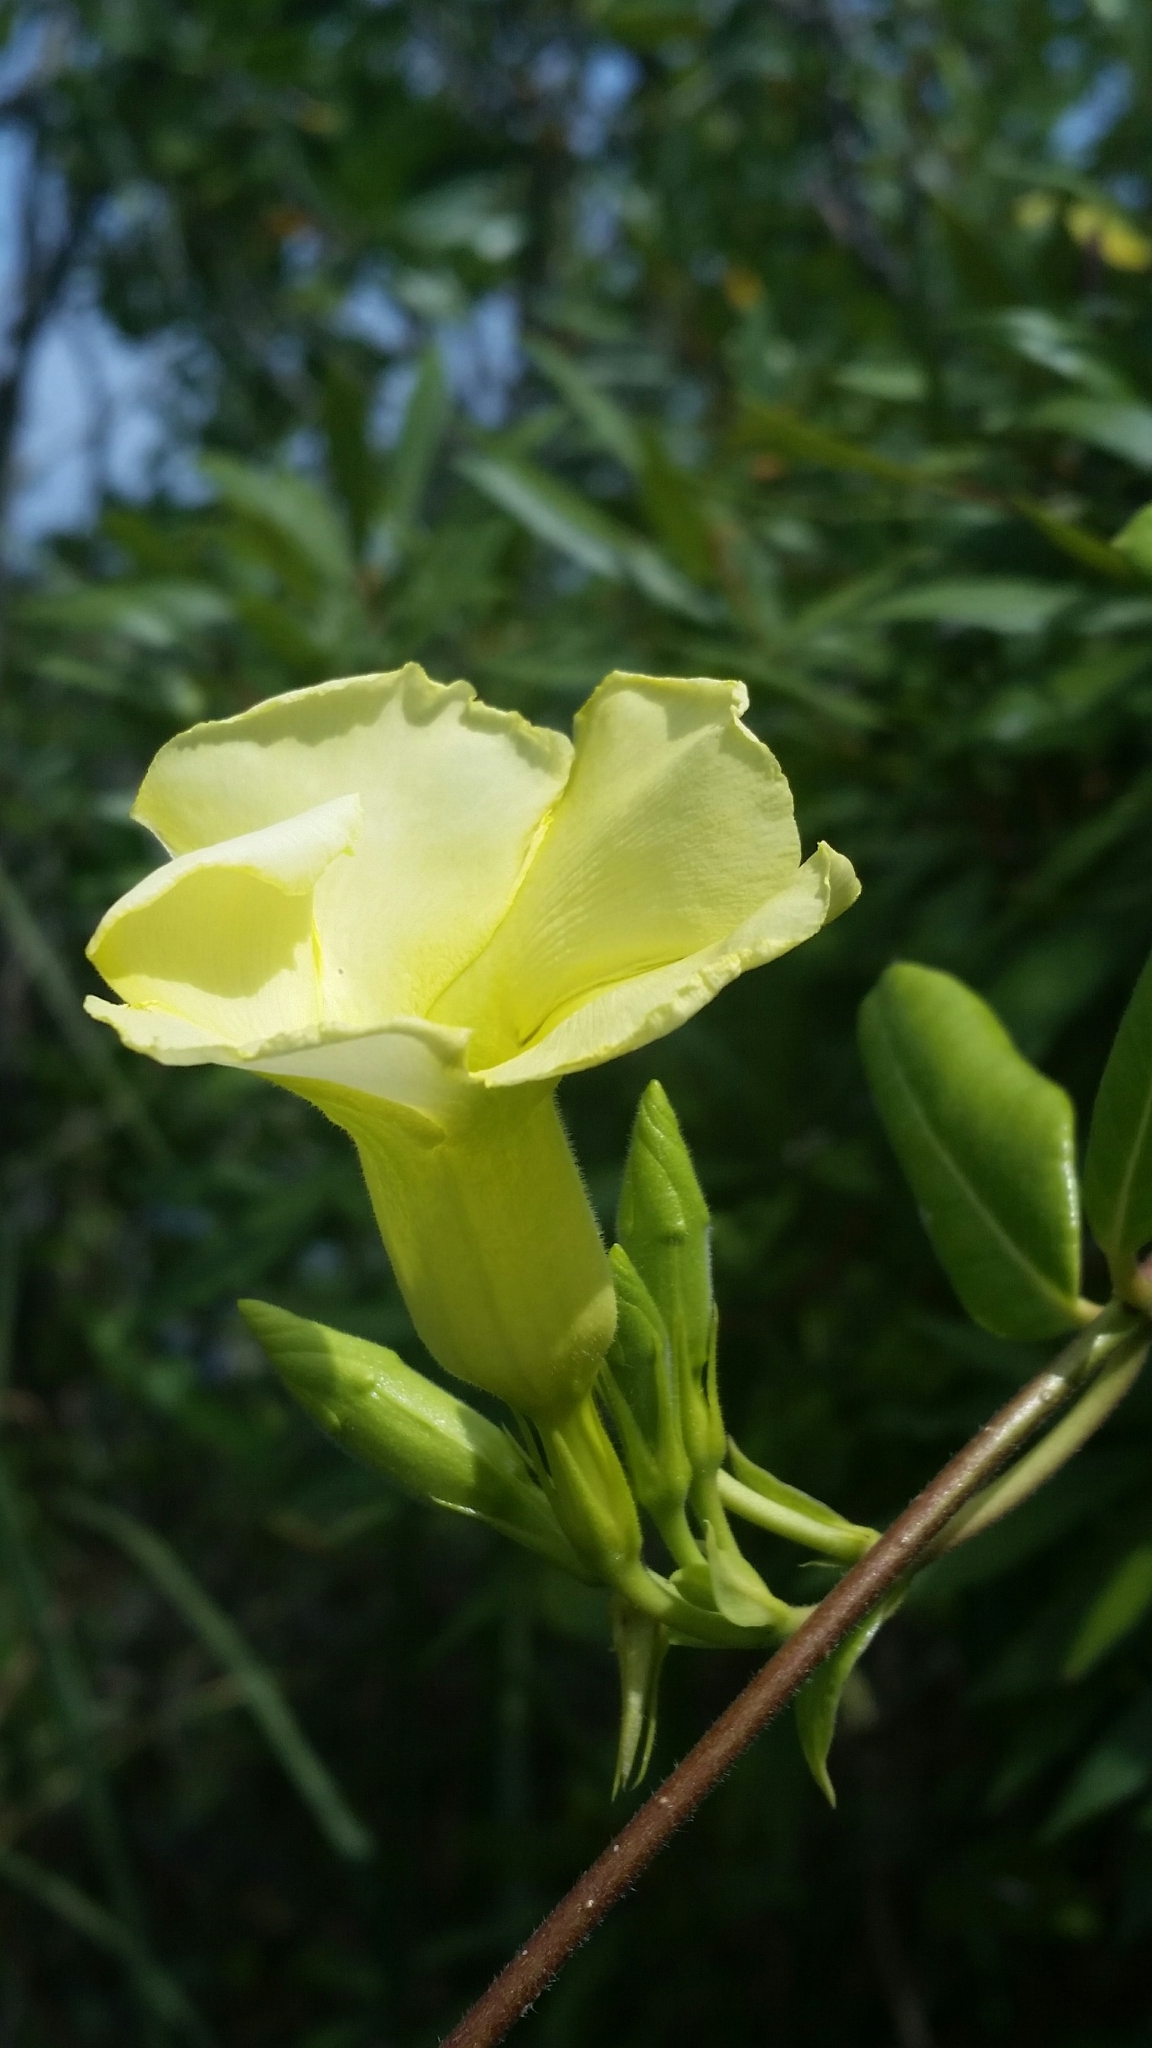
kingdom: Plantae
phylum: Tracheophyta
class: Magnoliopsida
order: Gentianales
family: Apocynaceae
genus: Pentalinon
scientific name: Pentalinon luteum
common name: Licebush
